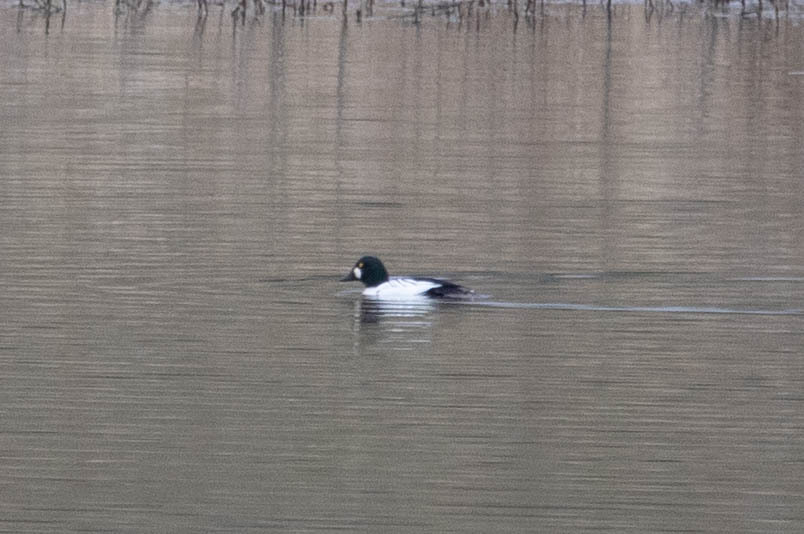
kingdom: Animalia
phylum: Chordata
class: Aves
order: Anseriformes
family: Anatidae
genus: Bucephala
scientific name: Bucephala clangula
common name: Common goldeneye
